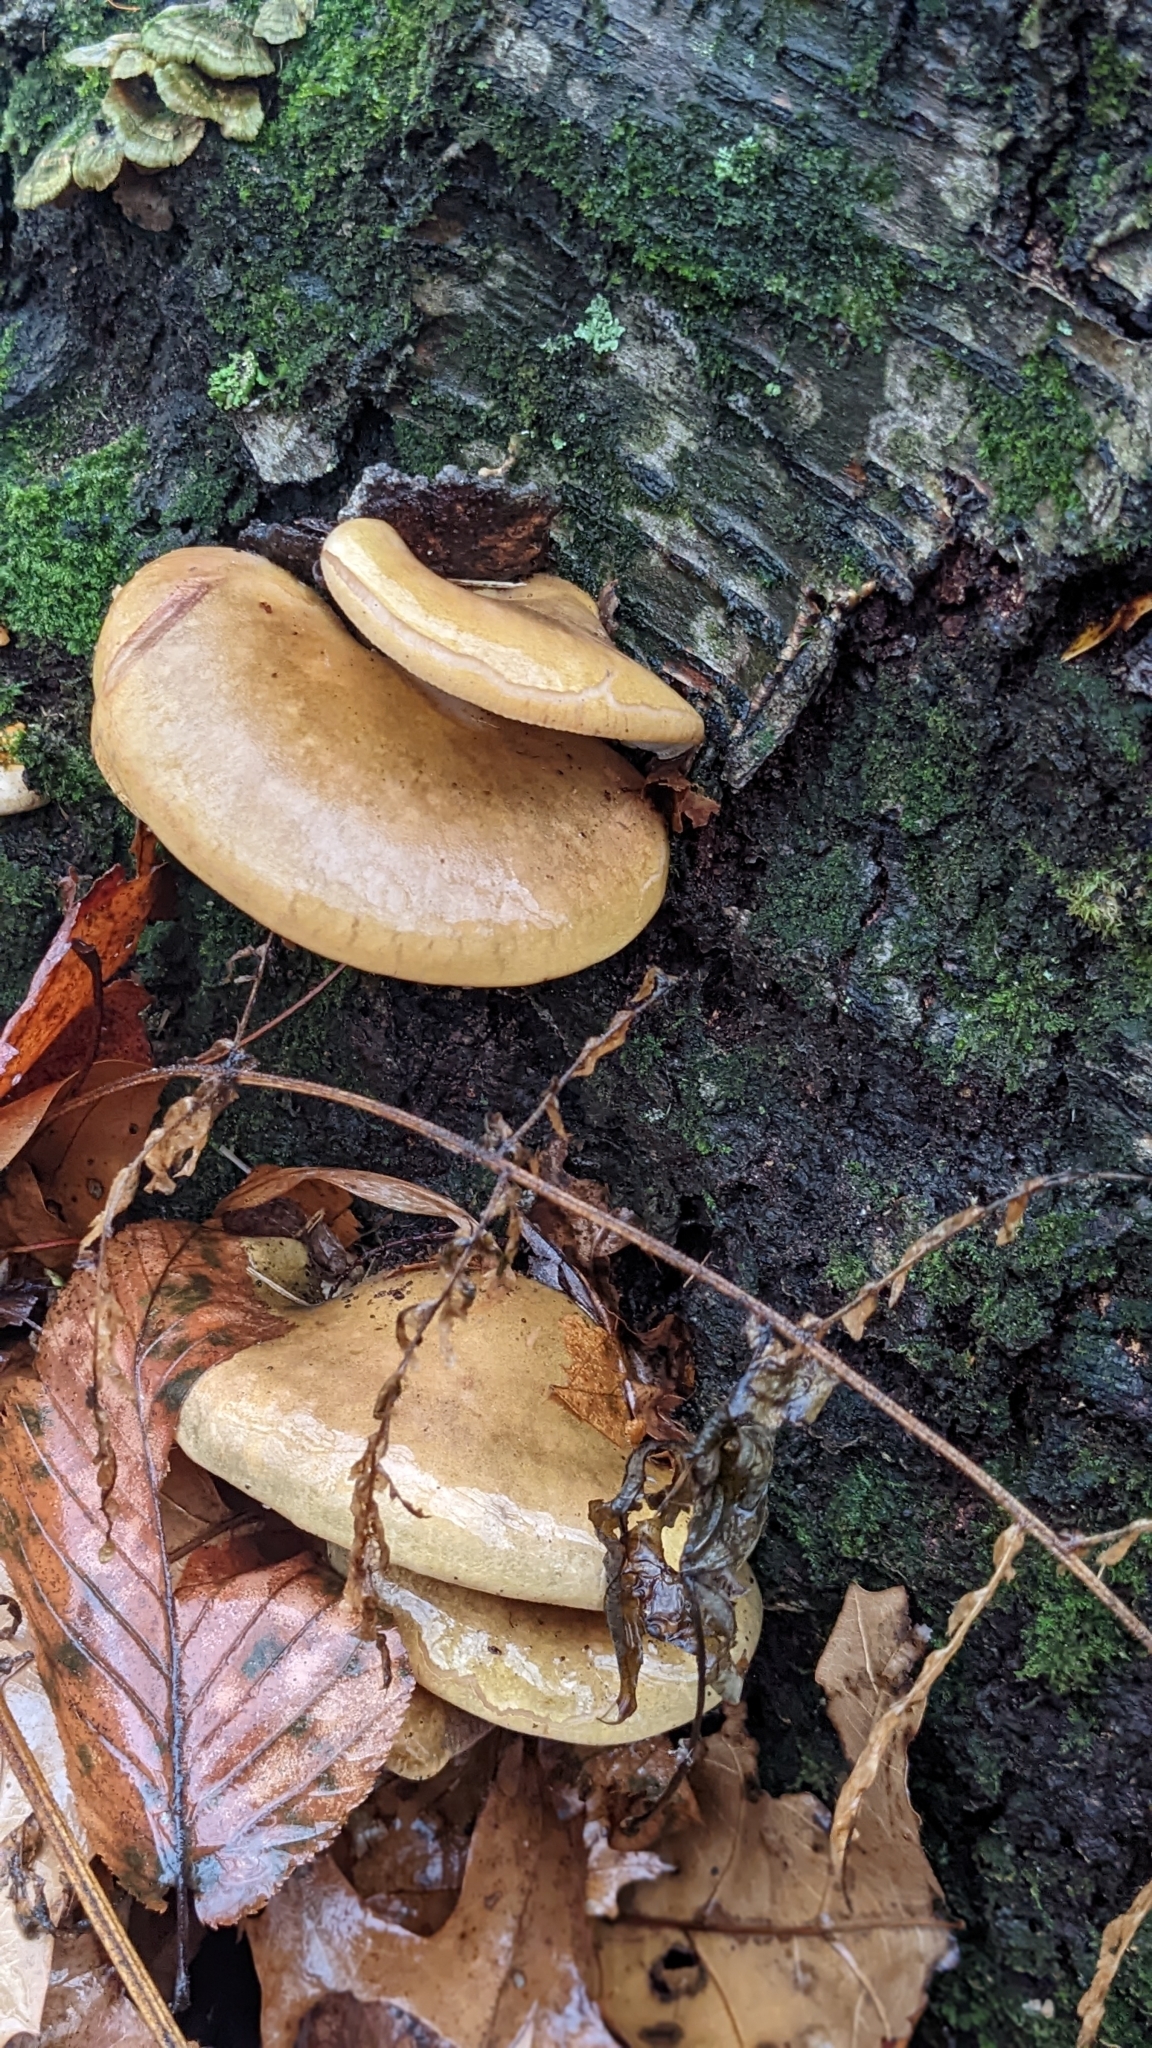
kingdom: Fungi
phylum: Basidiomycota
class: Agaricomycetes
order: Agaricales
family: Sarcomyxaceae
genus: Sarcomyxa
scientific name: Sarcomyxa serotina
